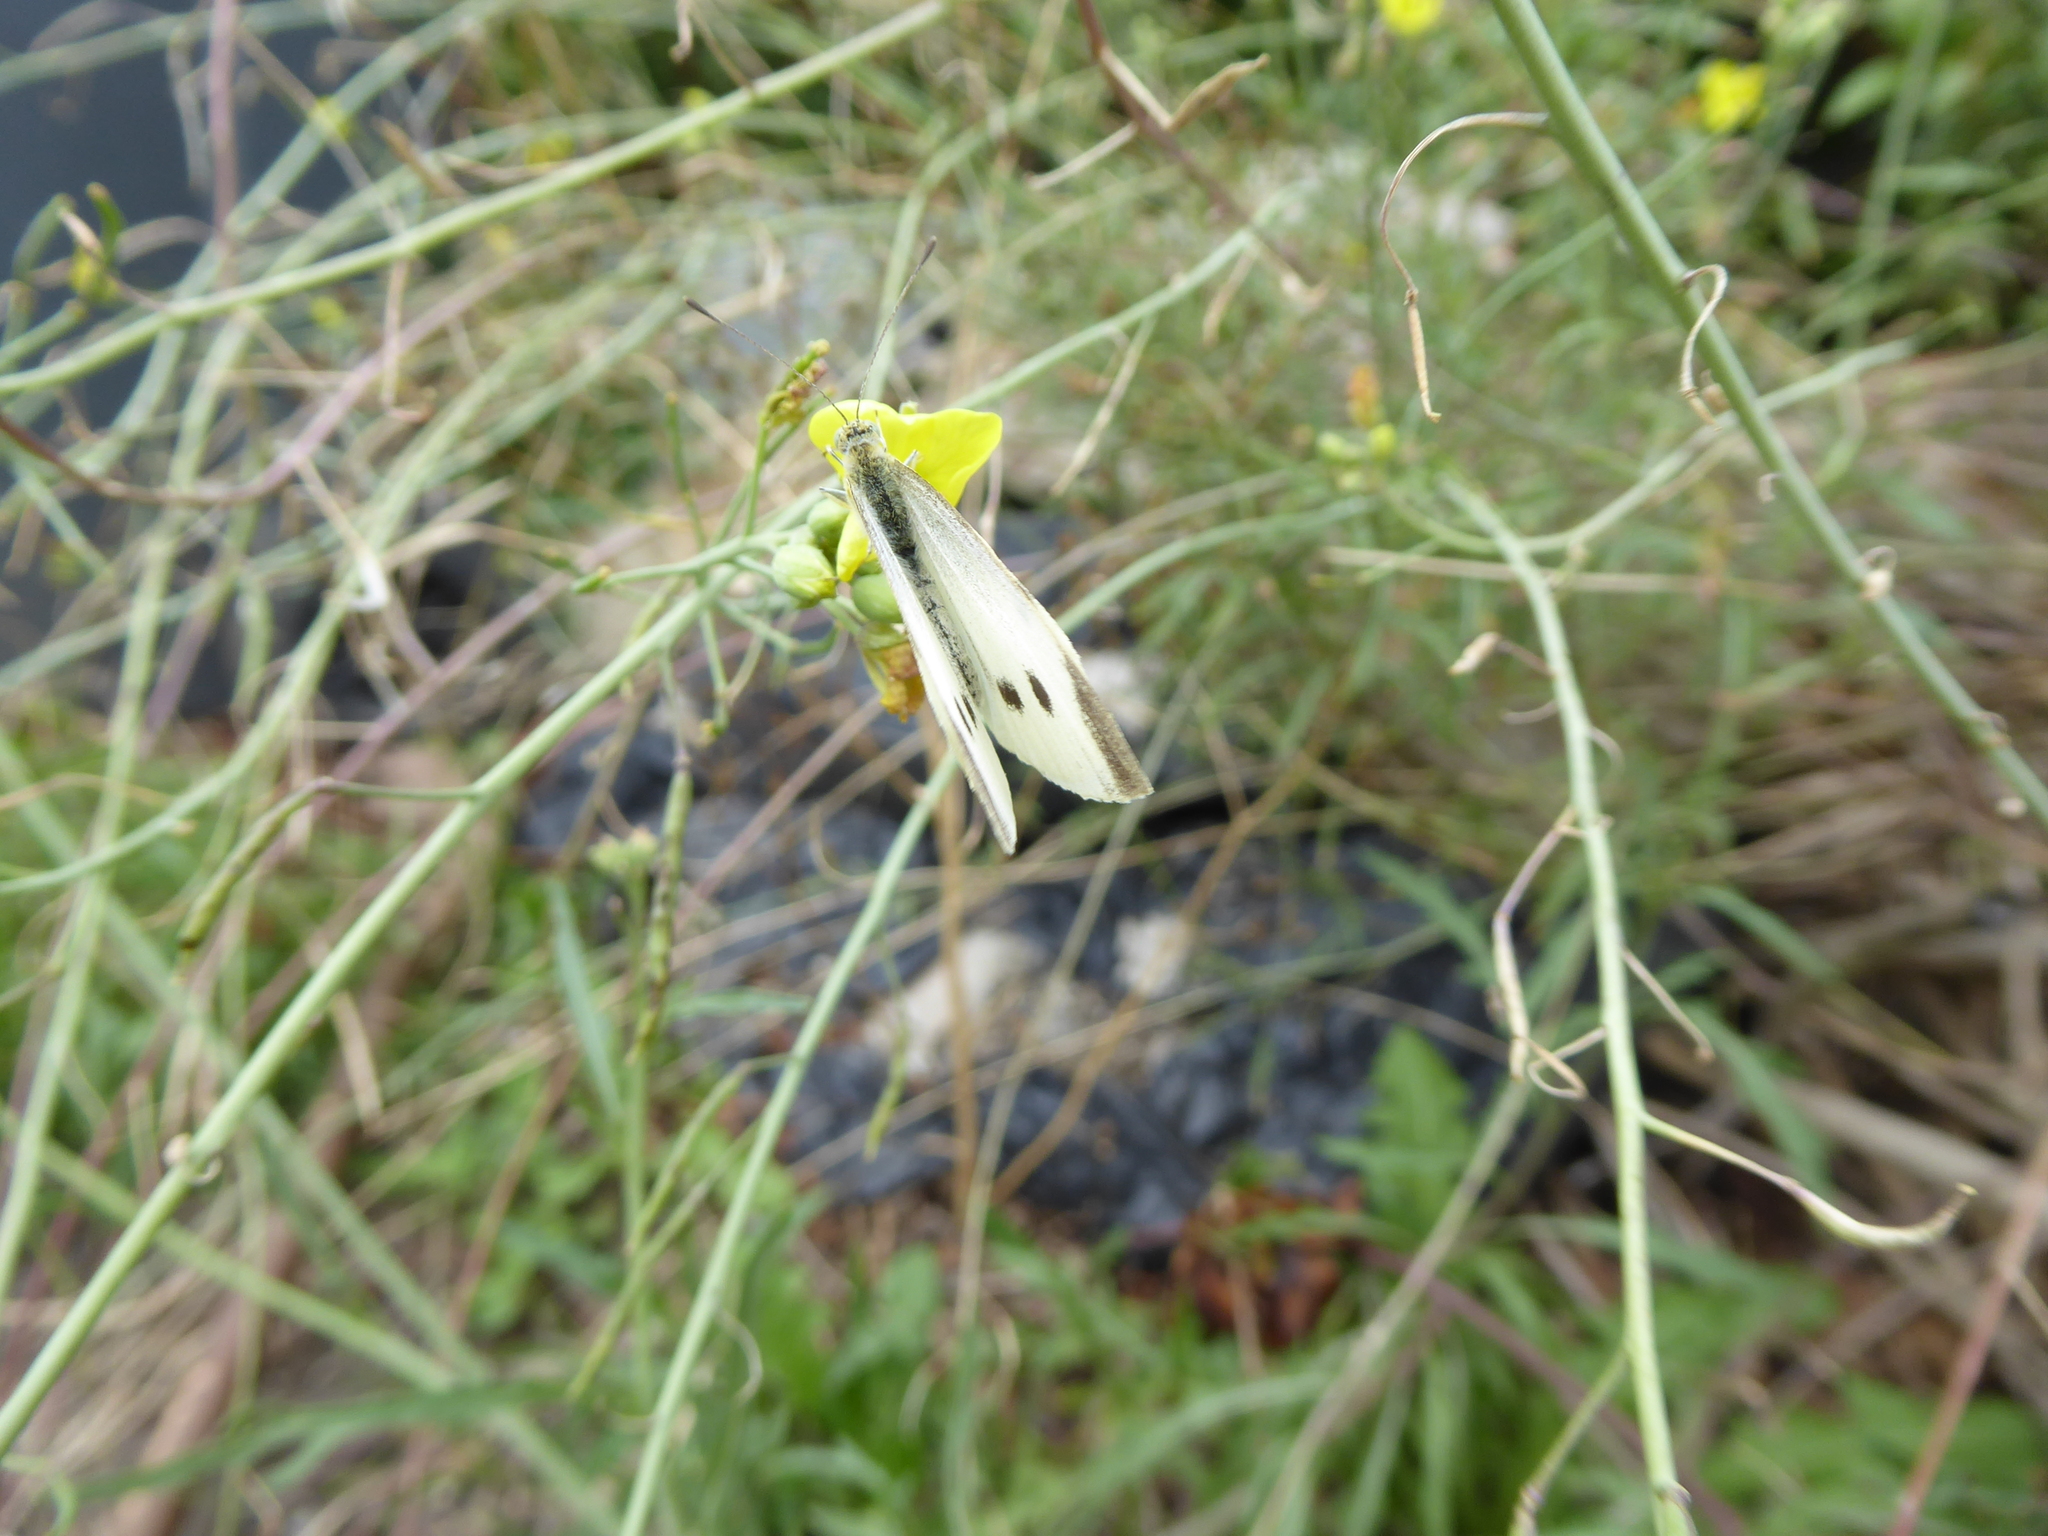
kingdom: Animalia
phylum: Arthropoda
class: Insecta
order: Lepidoptera
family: Pieridae
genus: Pieris
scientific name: Pieris rapae
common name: Small white
